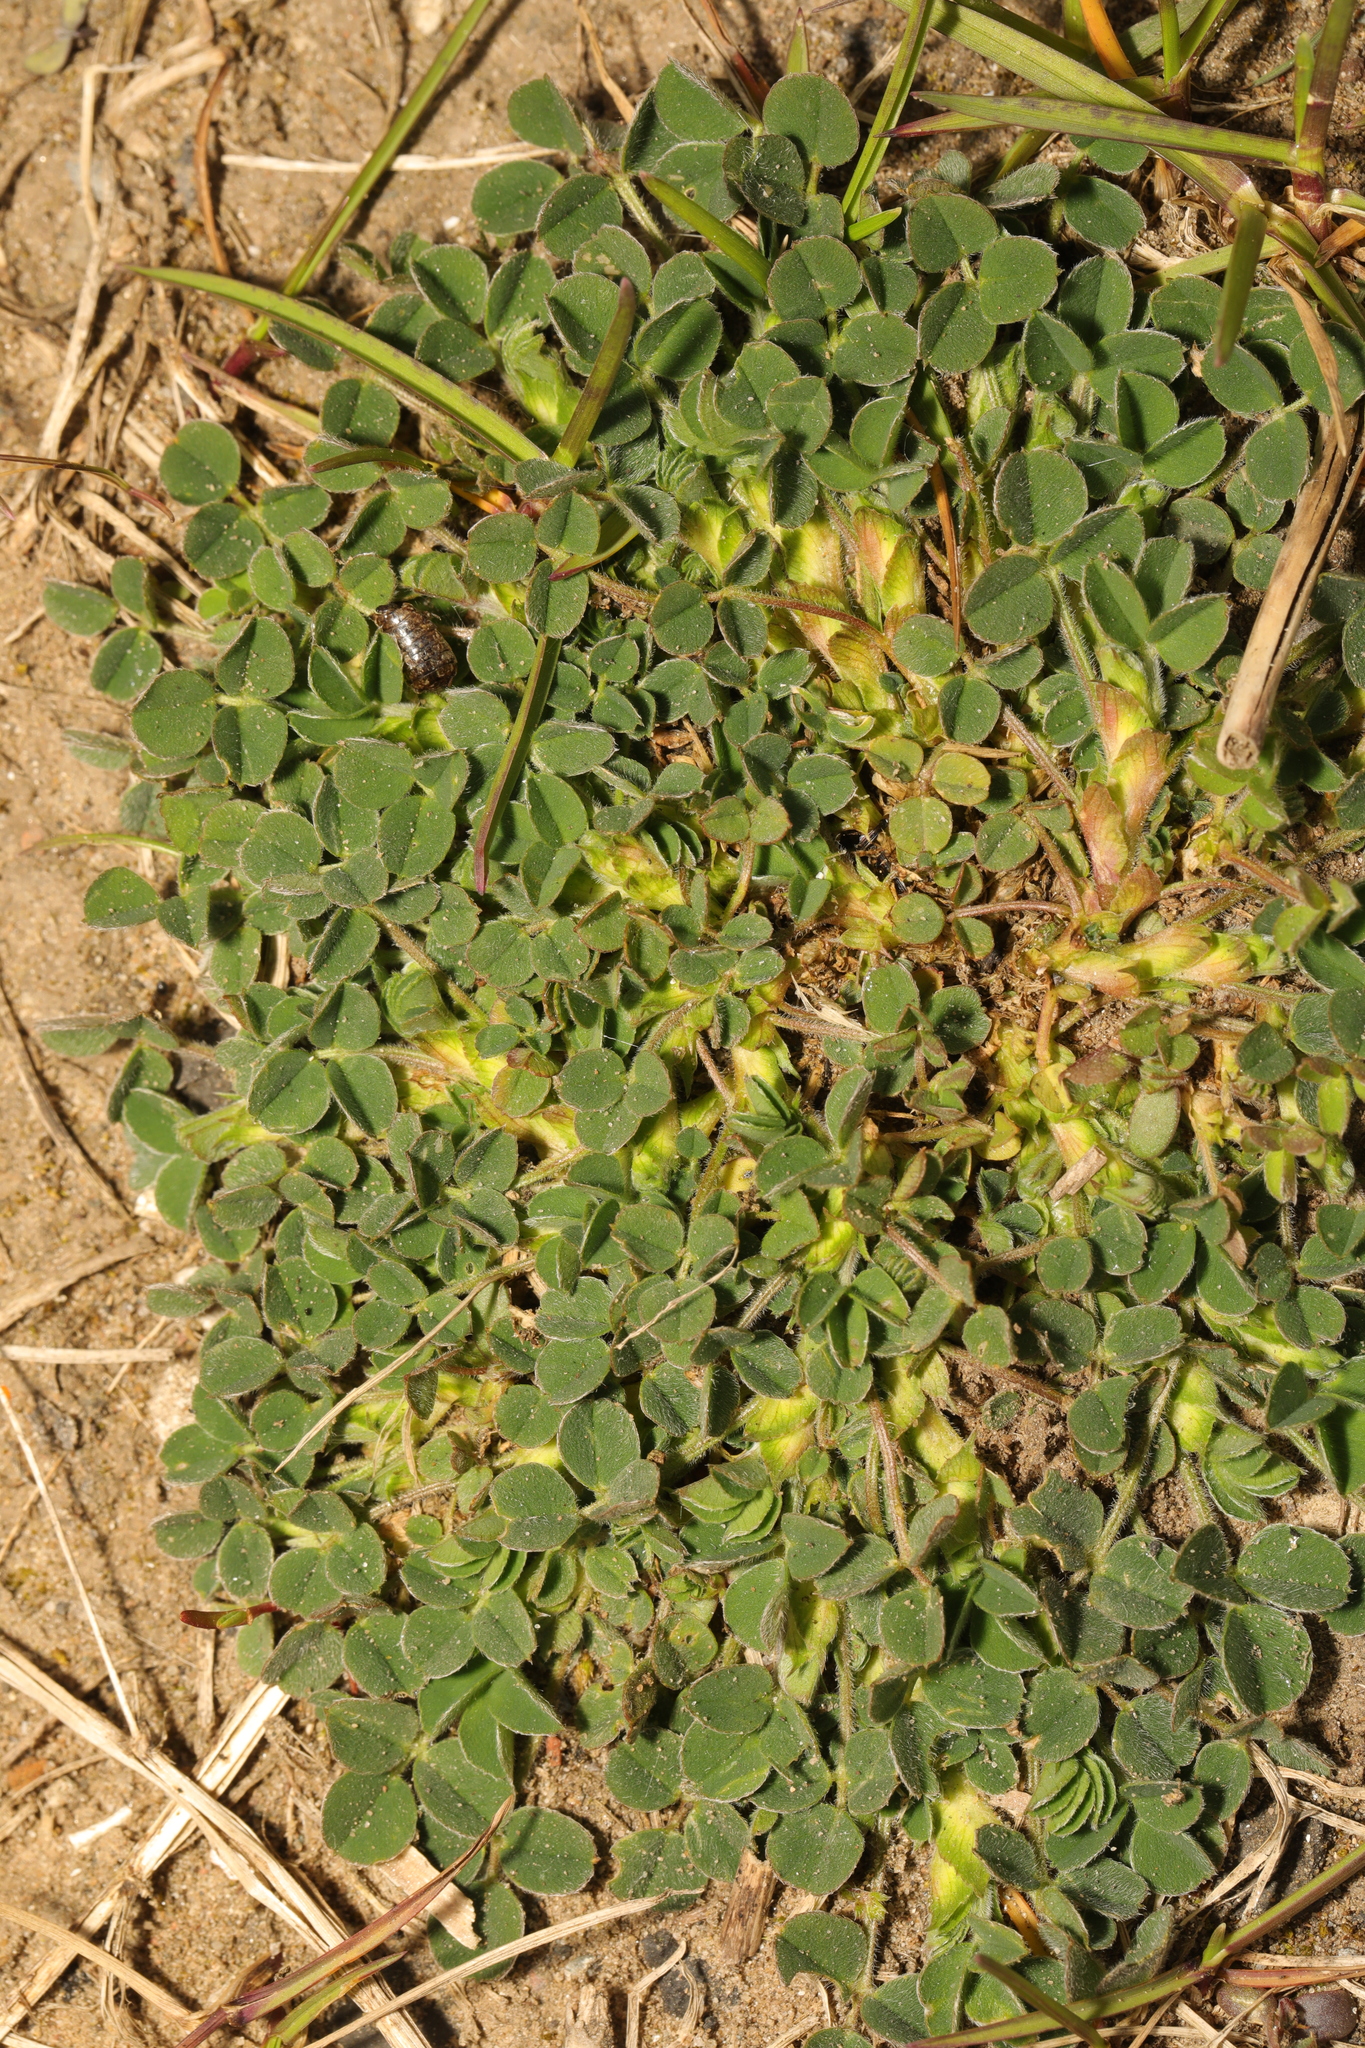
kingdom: Plantae
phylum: Tracheophyta
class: Magnoliopsida
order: Fabales
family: Fabaceae
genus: Medicago
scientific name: Medicago lupulina
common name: Black medick
